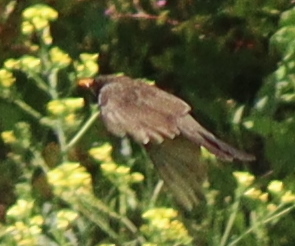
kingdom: Animalia
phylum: Chordata
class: Aves
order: Passeriformes
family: Turdidae
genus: Turdus
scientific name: Turdus merula
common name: Common blackbird
